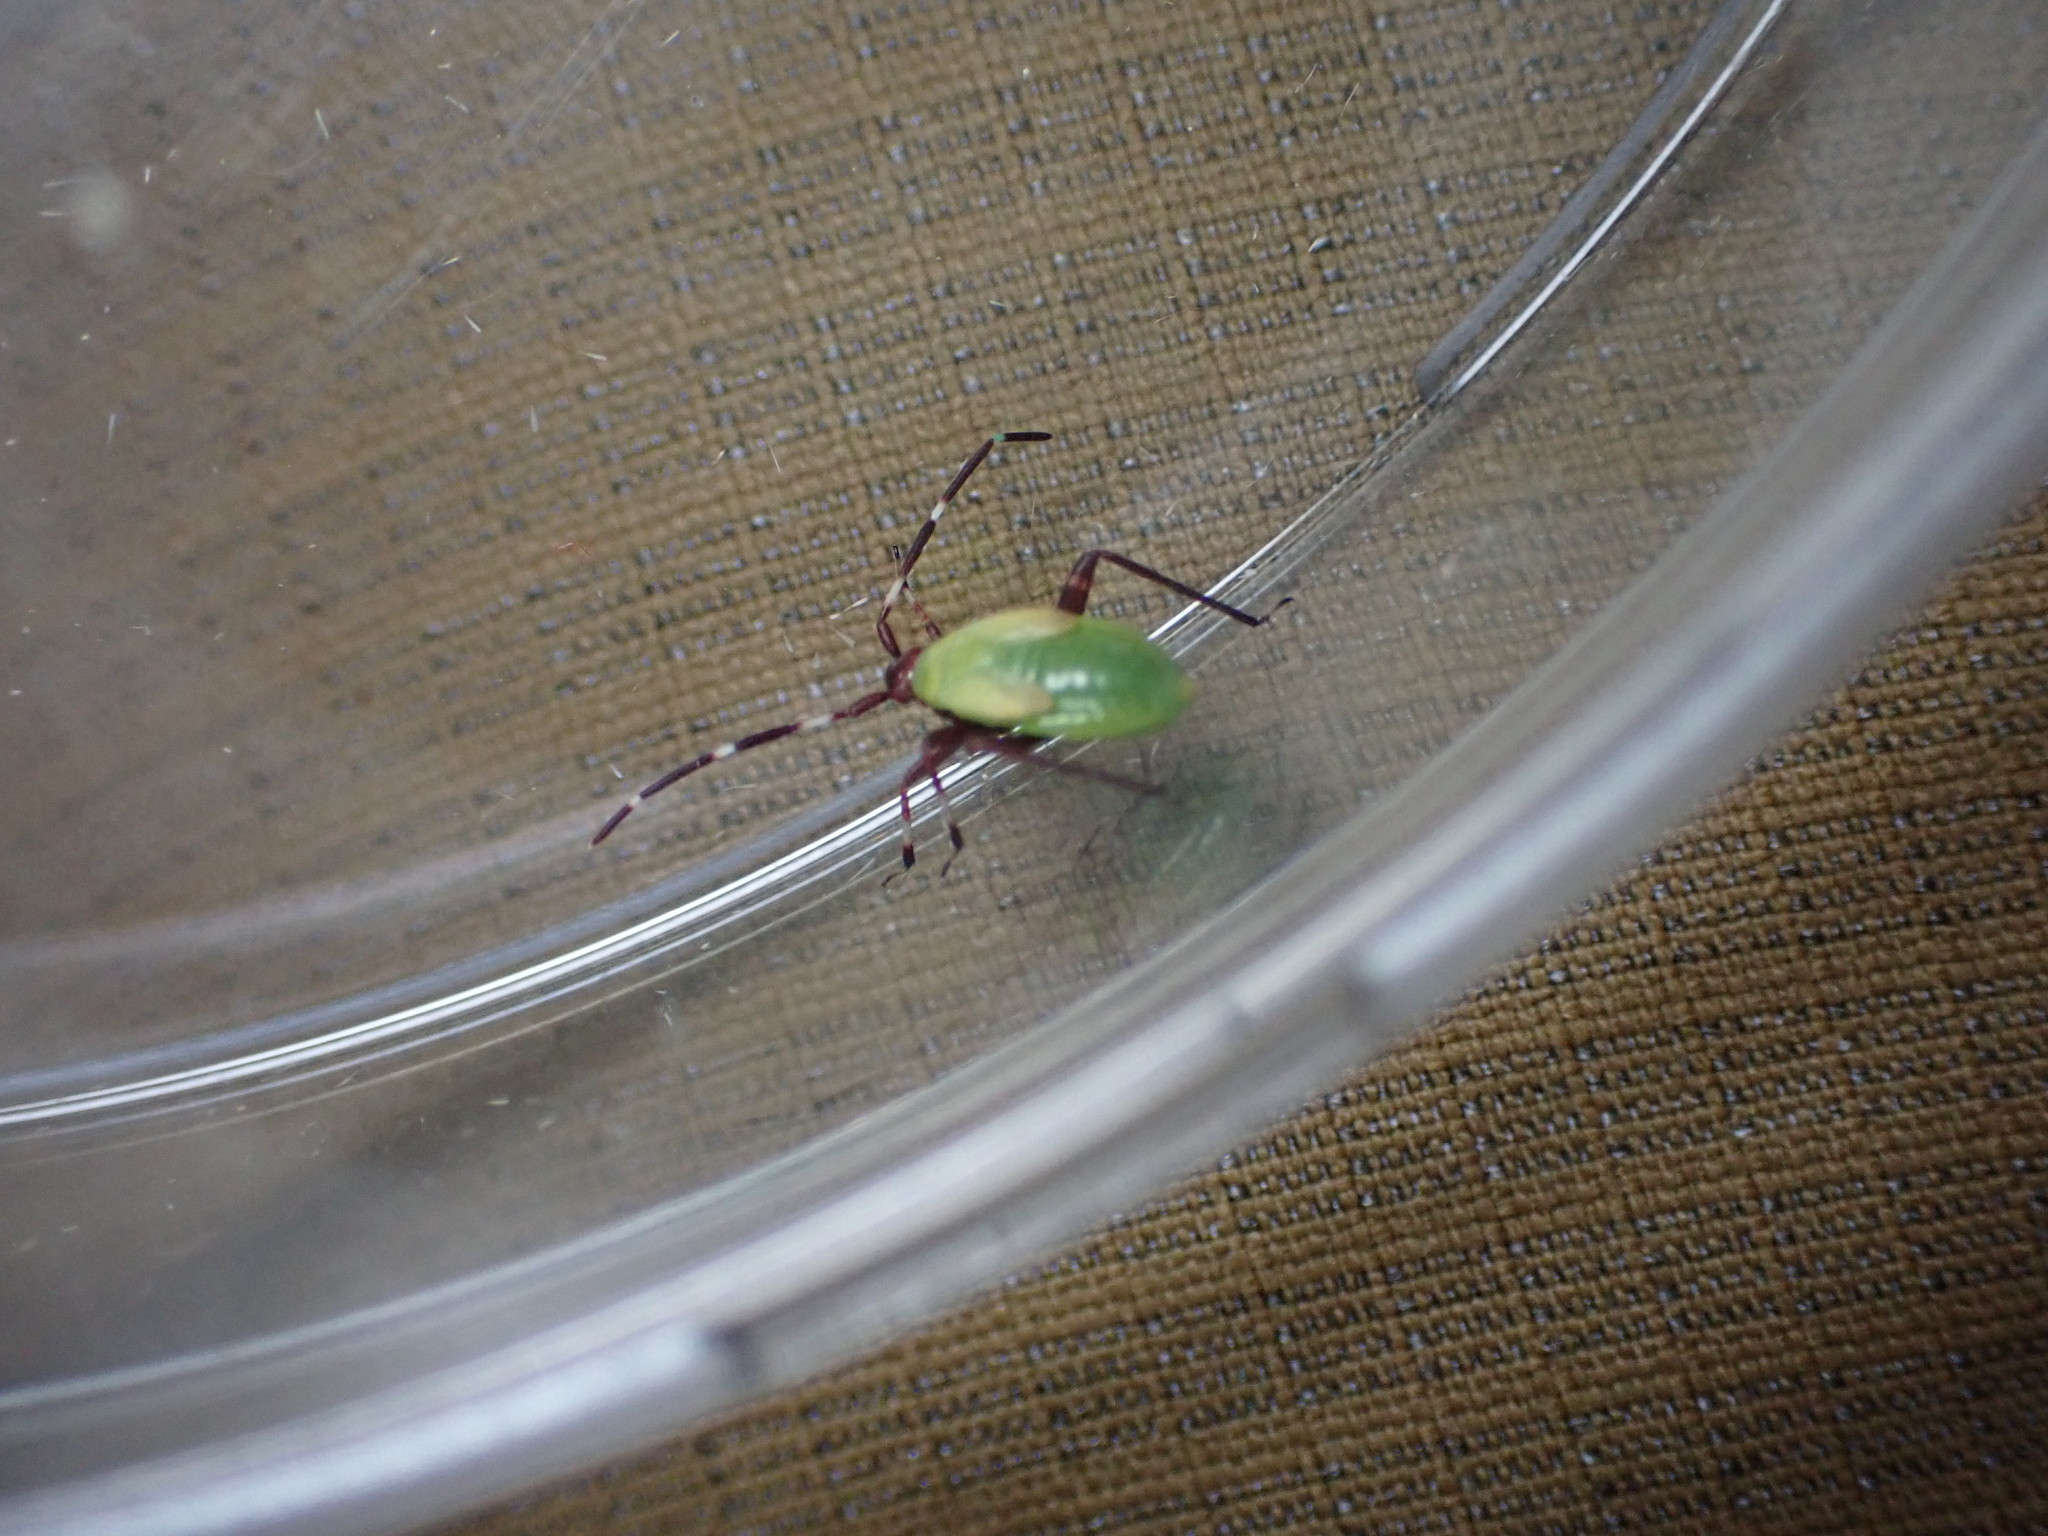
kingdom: Animalia
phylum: Arthropoda
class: Insecta
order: Hemiptera
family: Miridae
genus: Adelphocoris
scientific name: Adelphocoris vandalicus
